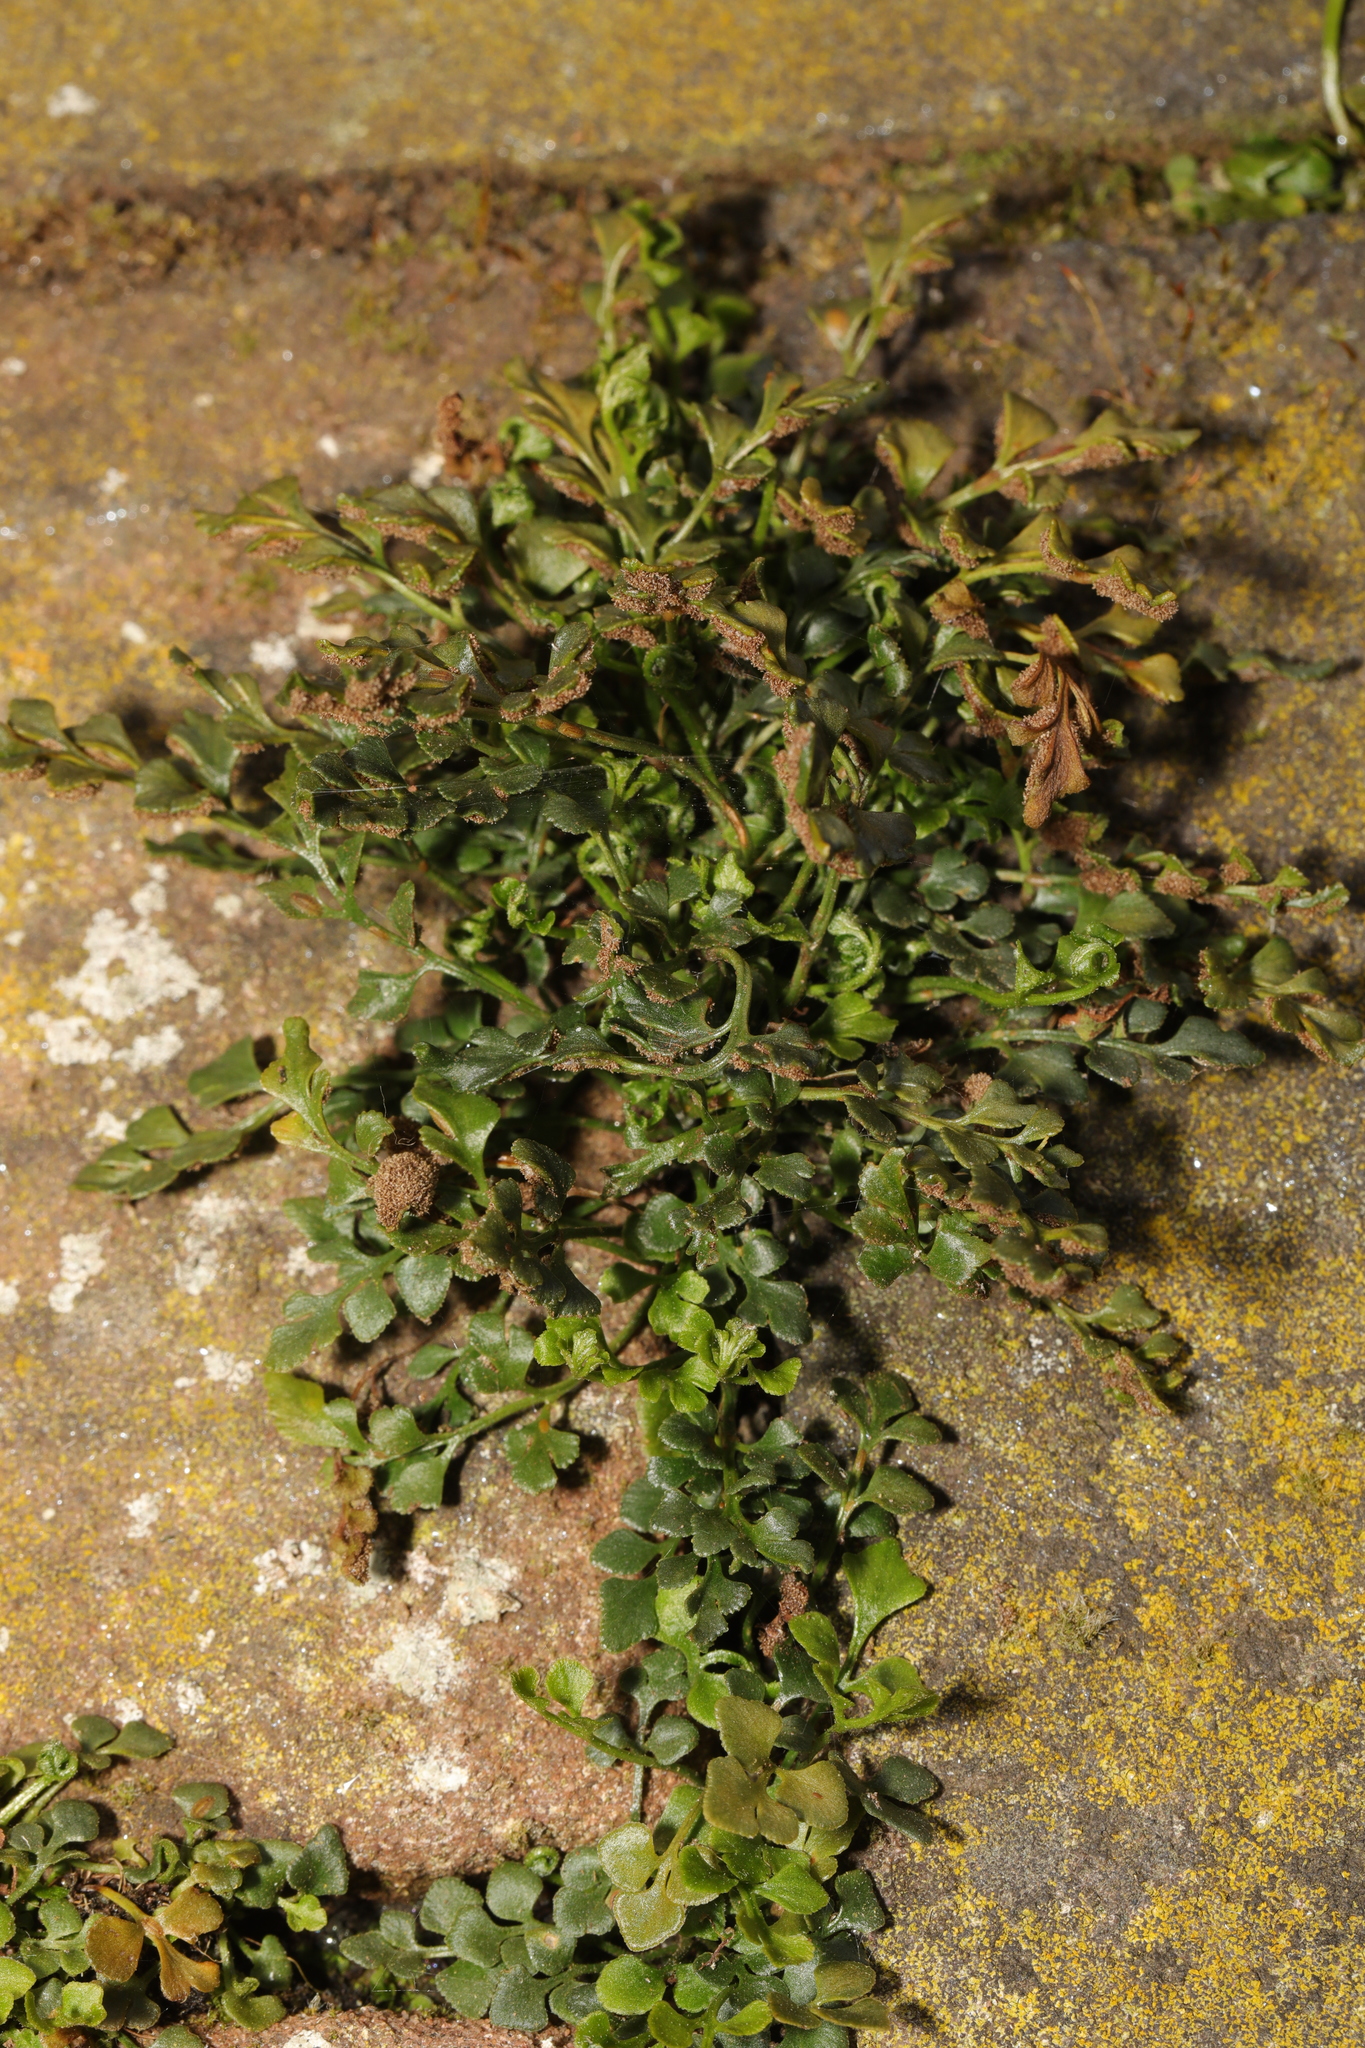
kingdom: Plantae
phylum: Tracheophyta
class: Polypodiopsida
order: Polypodiales
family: Aspleniaceae
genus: Asplenium
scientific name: Asplenium ruta-muraria
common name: Wall-rue
